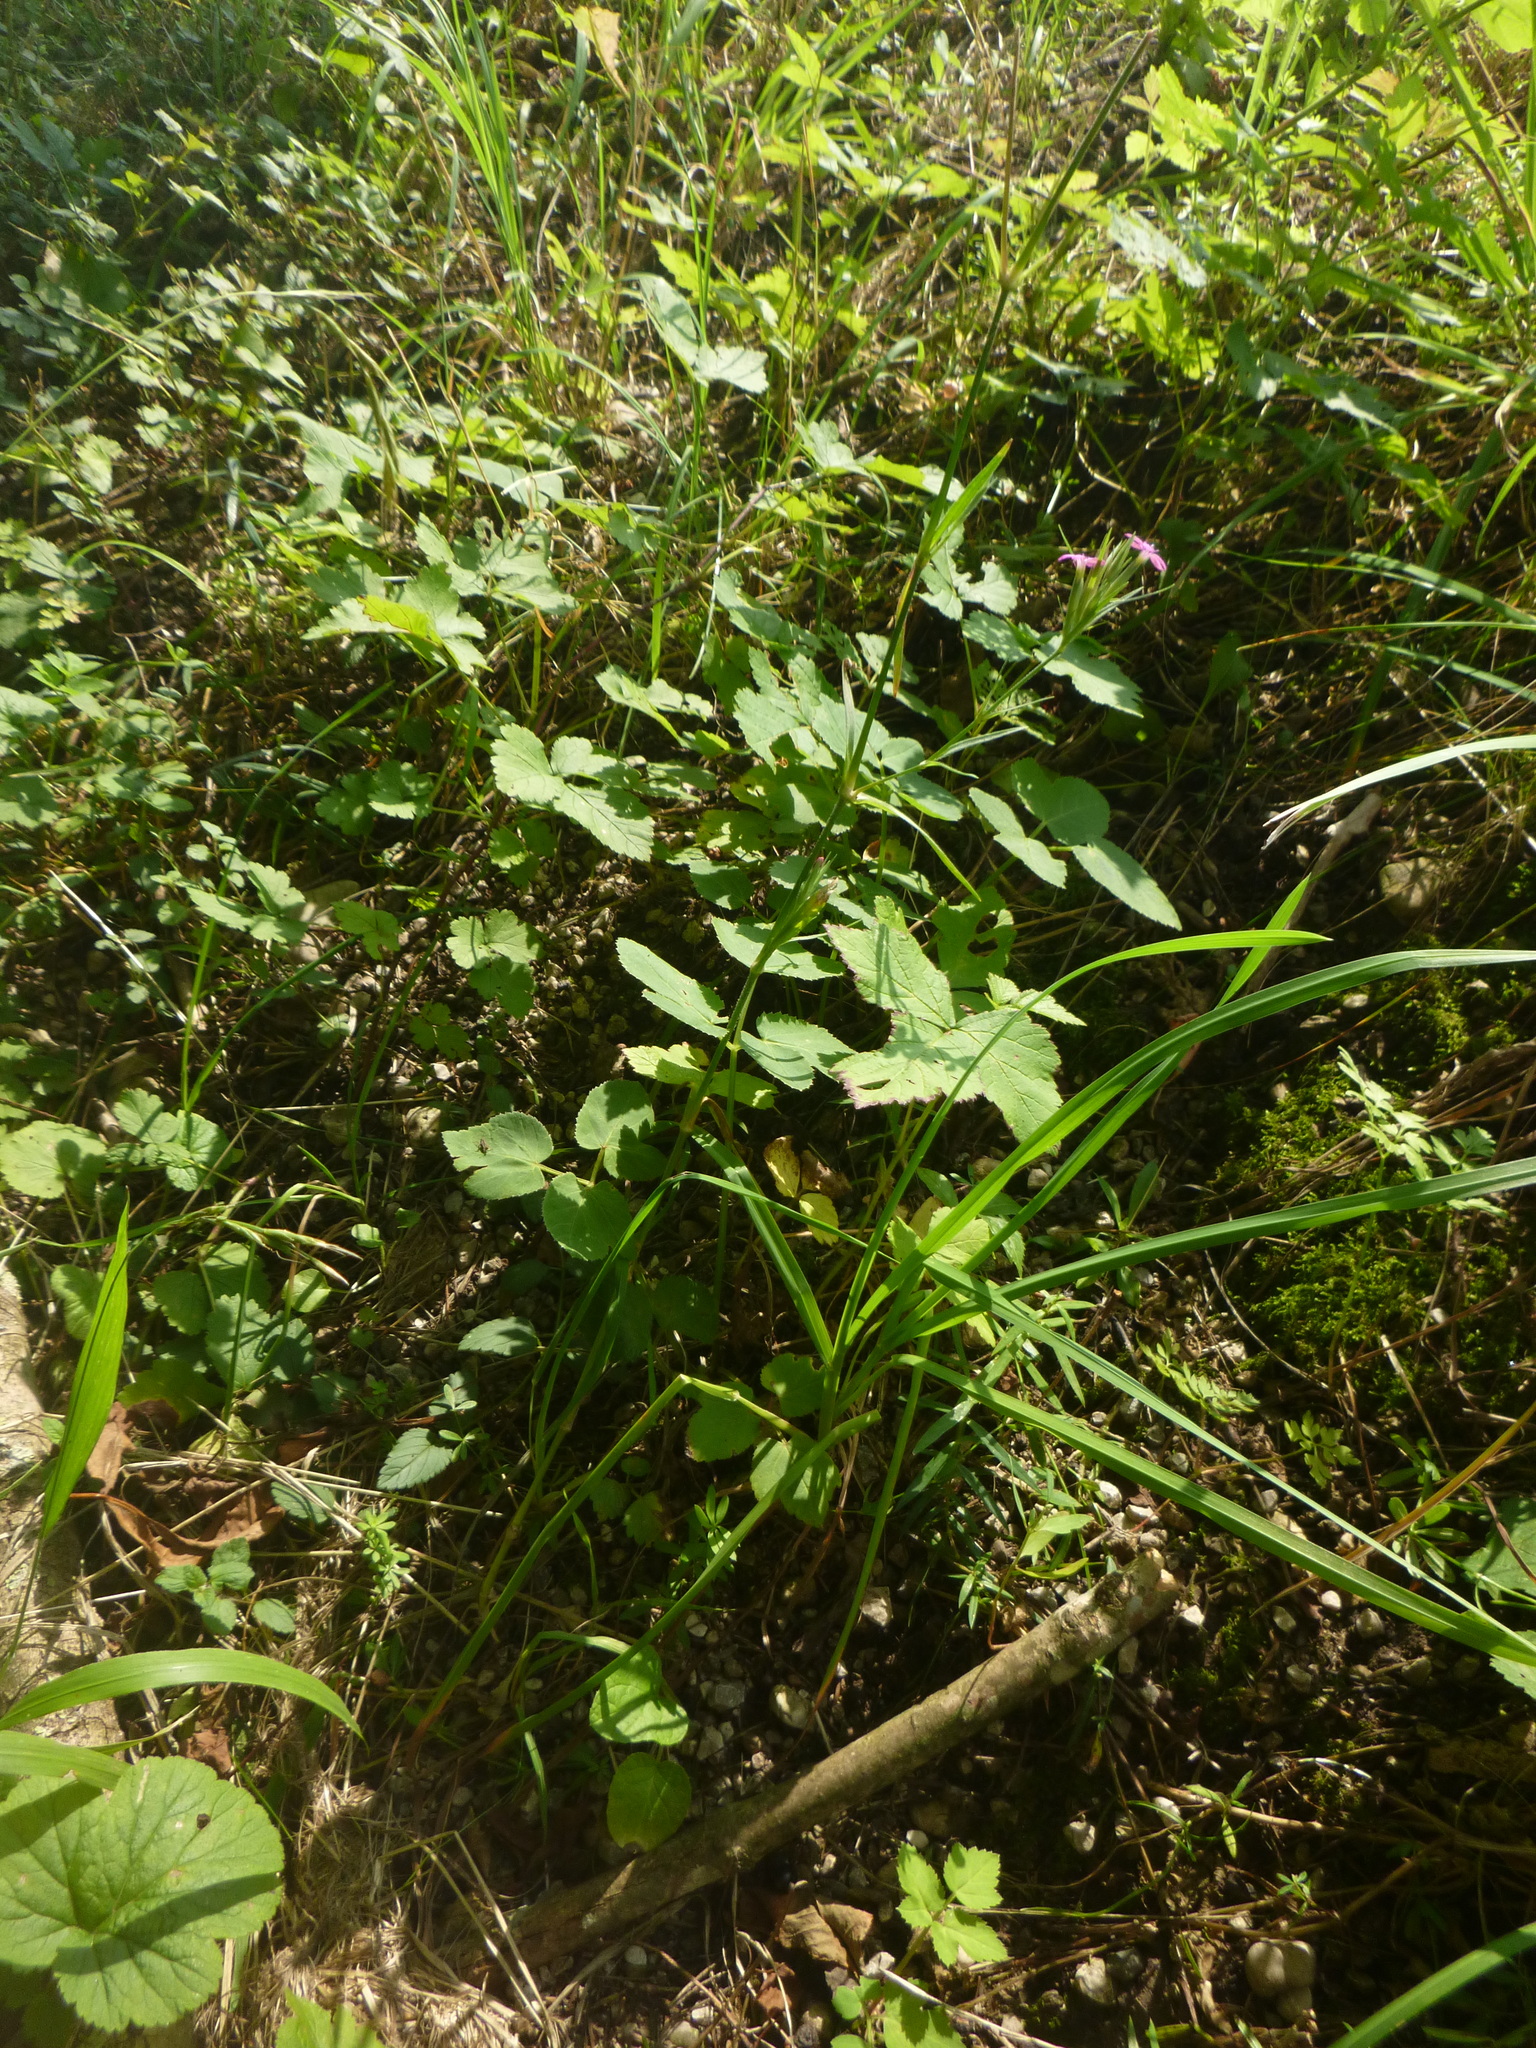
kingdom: Plantae
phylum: Tracheophyta
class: Magnoliopsida
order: Caryophyllales
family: Caryophyllaceae
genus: Dianthus
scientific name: Dianthus armeria
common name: Deptford pink
